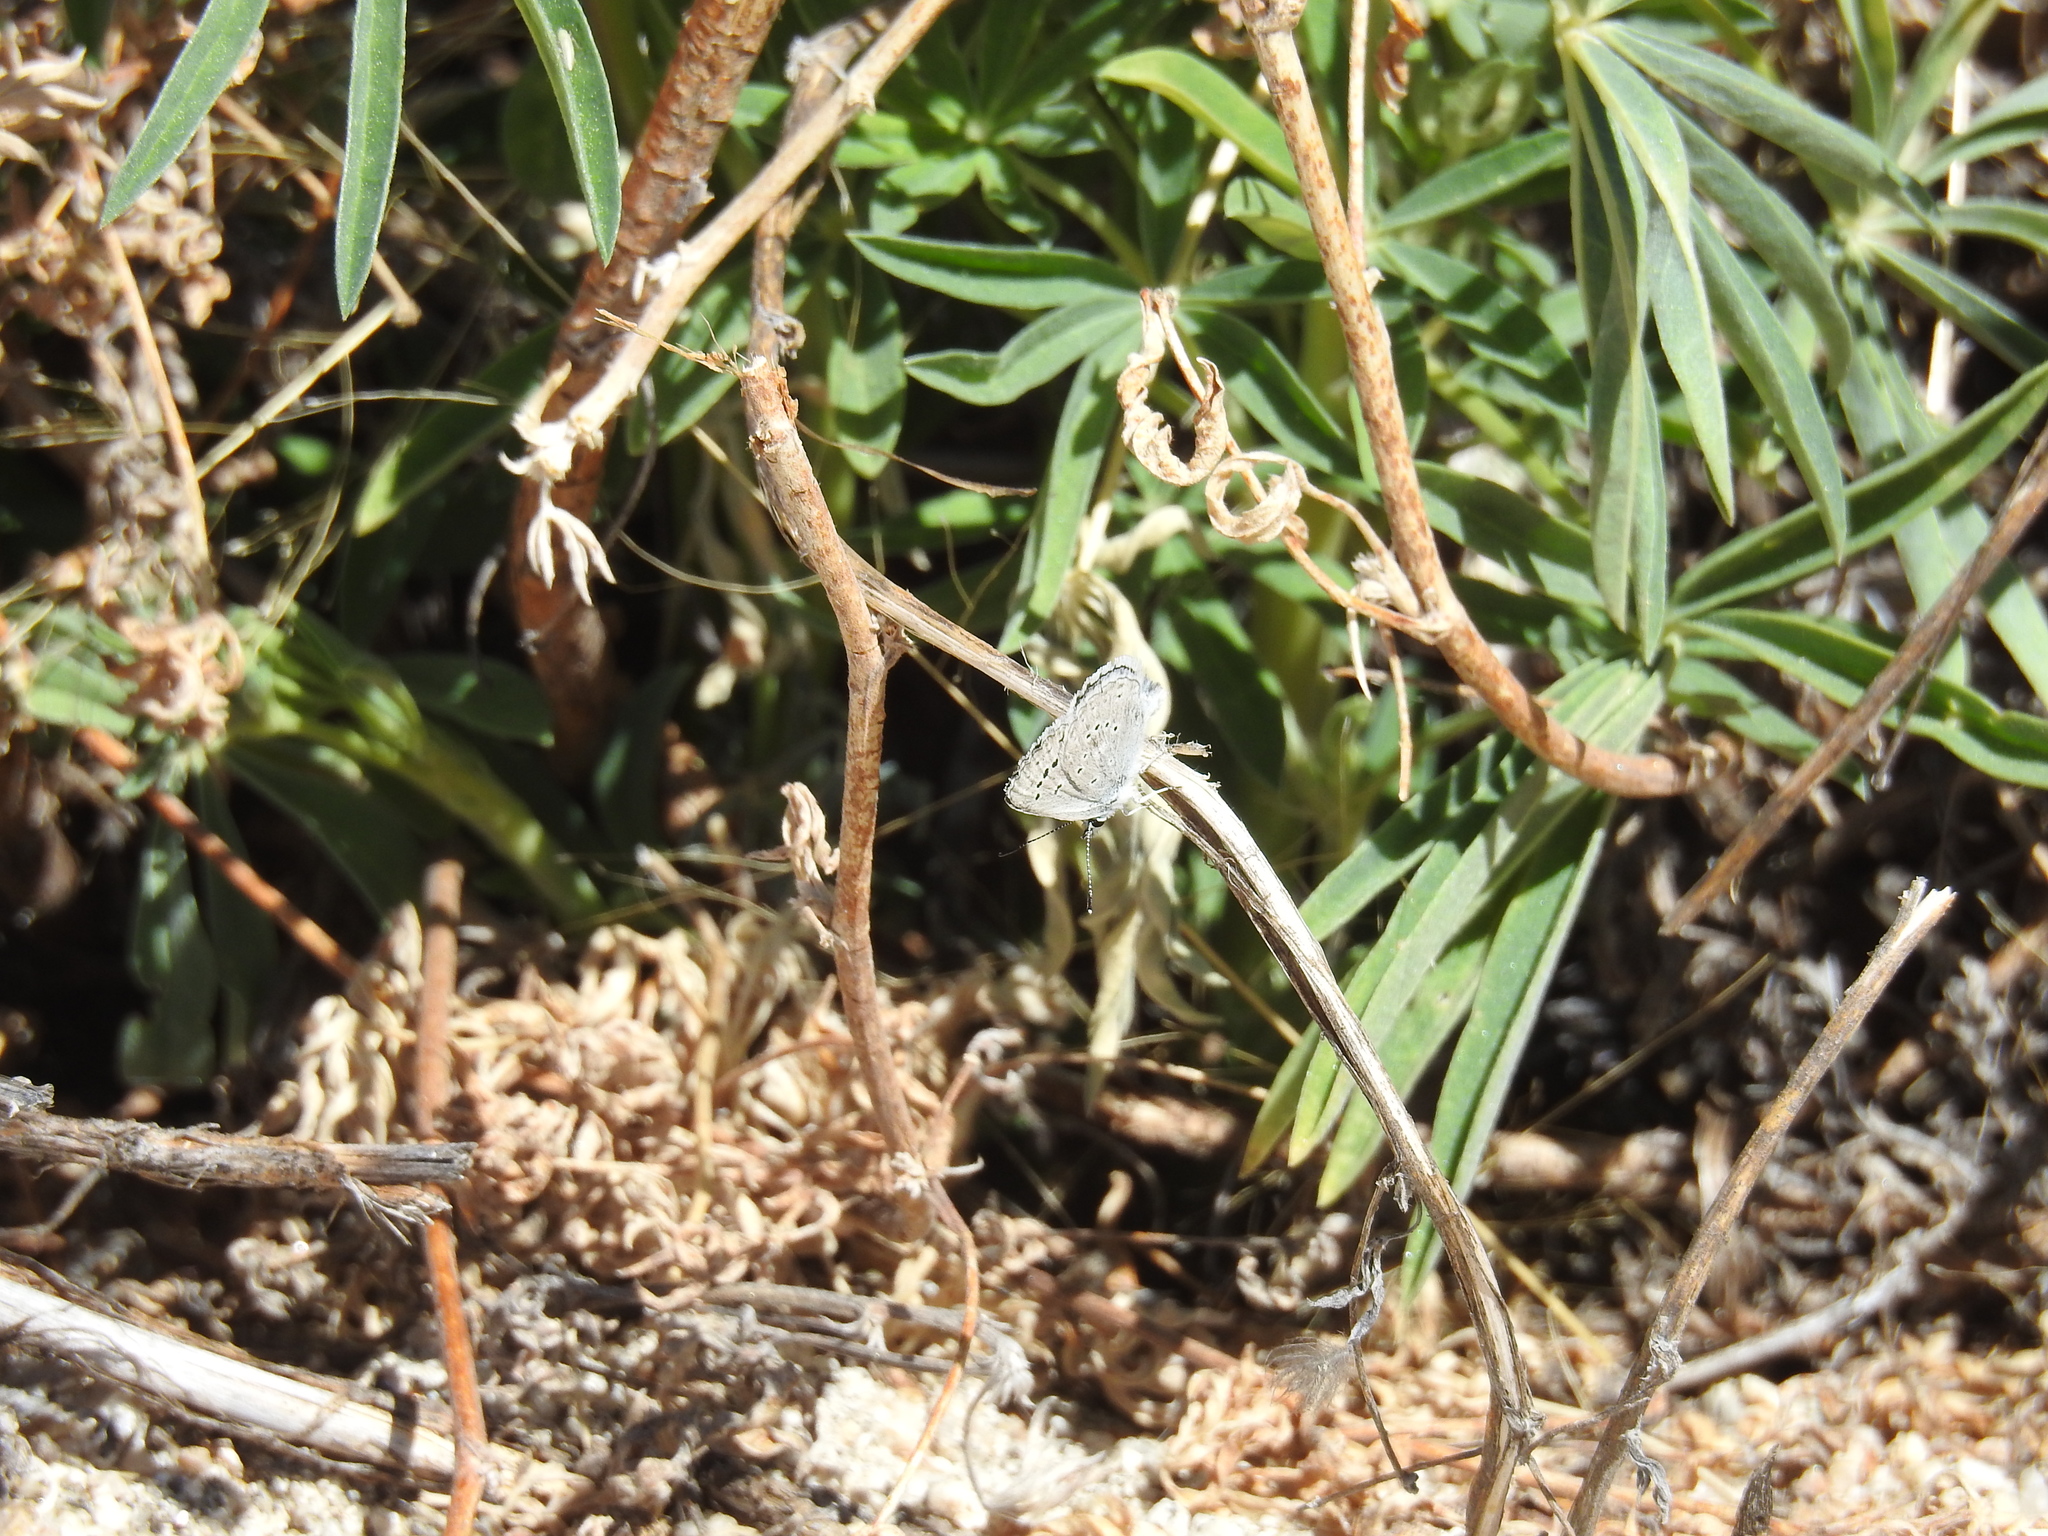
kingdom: Animalia
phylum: Arthropoda
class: Insecta
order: Lepidoptera
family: Lycaenidae
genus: Icaricia
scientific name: Icaricia icarioides
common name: Boisduval's blue
